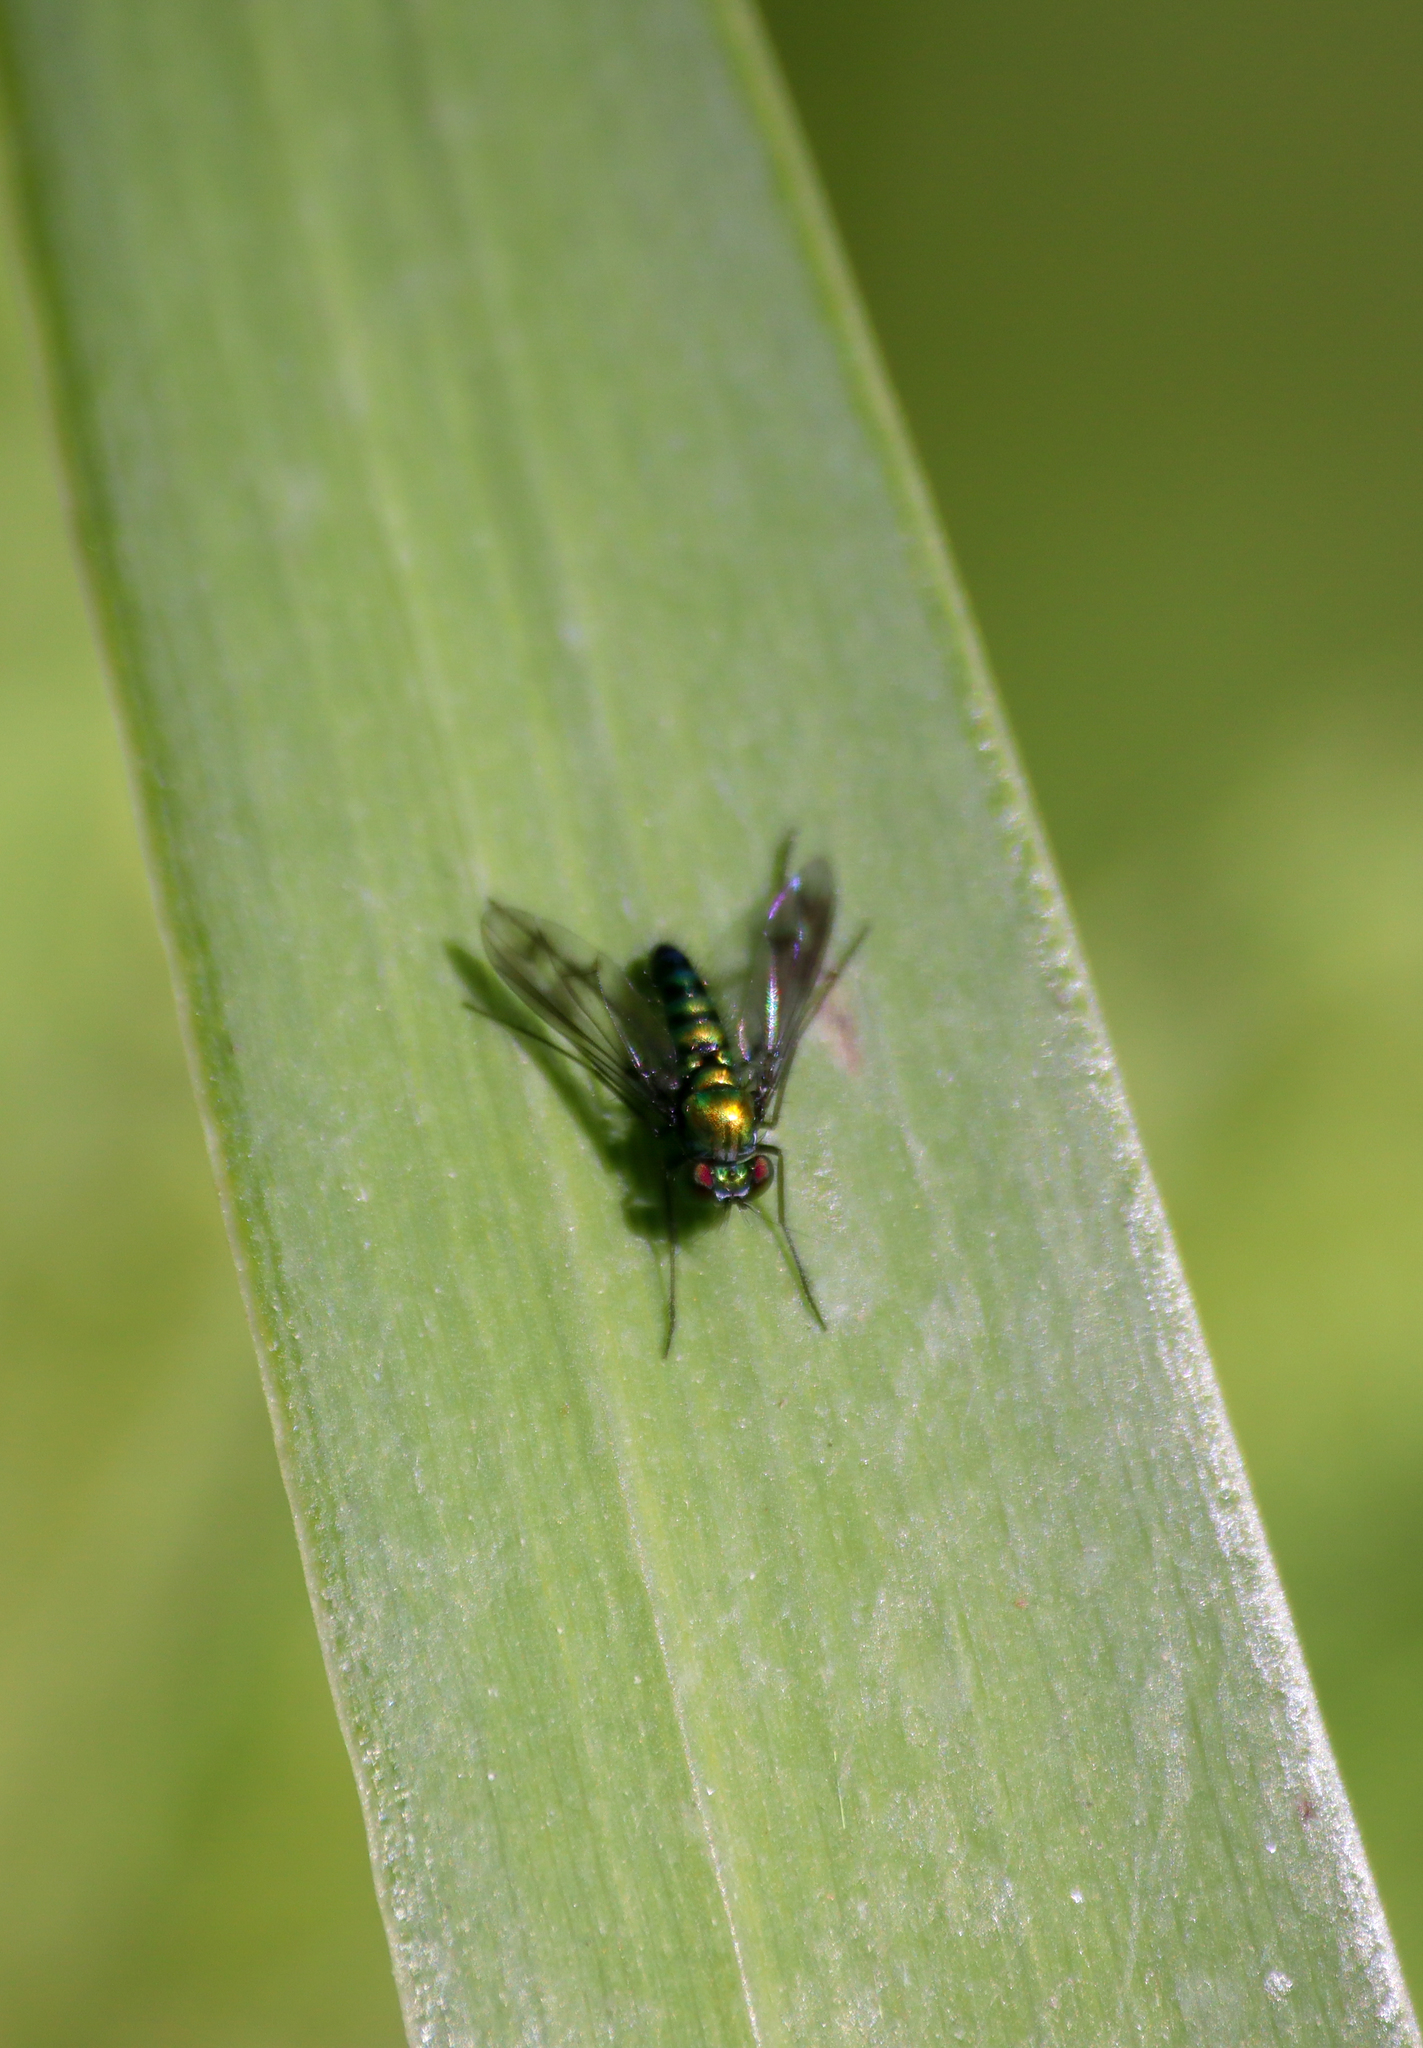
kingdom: Animalia
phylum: Arthropoda
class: Insecta
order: Diptera
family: Dolichopodidae
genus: Condylostylus
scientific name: Condylostylus patibulatus
